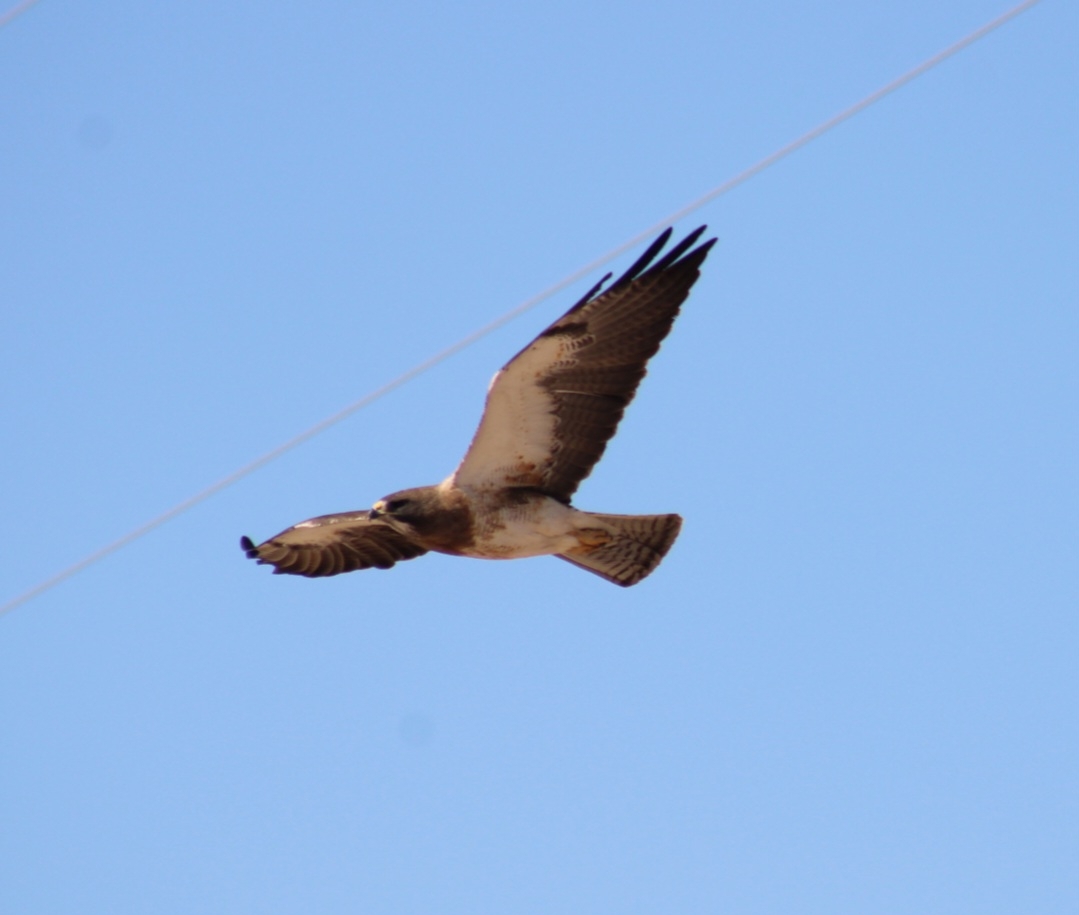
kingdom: Animalia
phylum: Chordata
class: Aves
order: Accipitriformes
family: Accipitridae
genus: Buteo
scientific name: Buteo swainsoni
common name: Swainson's hawk
